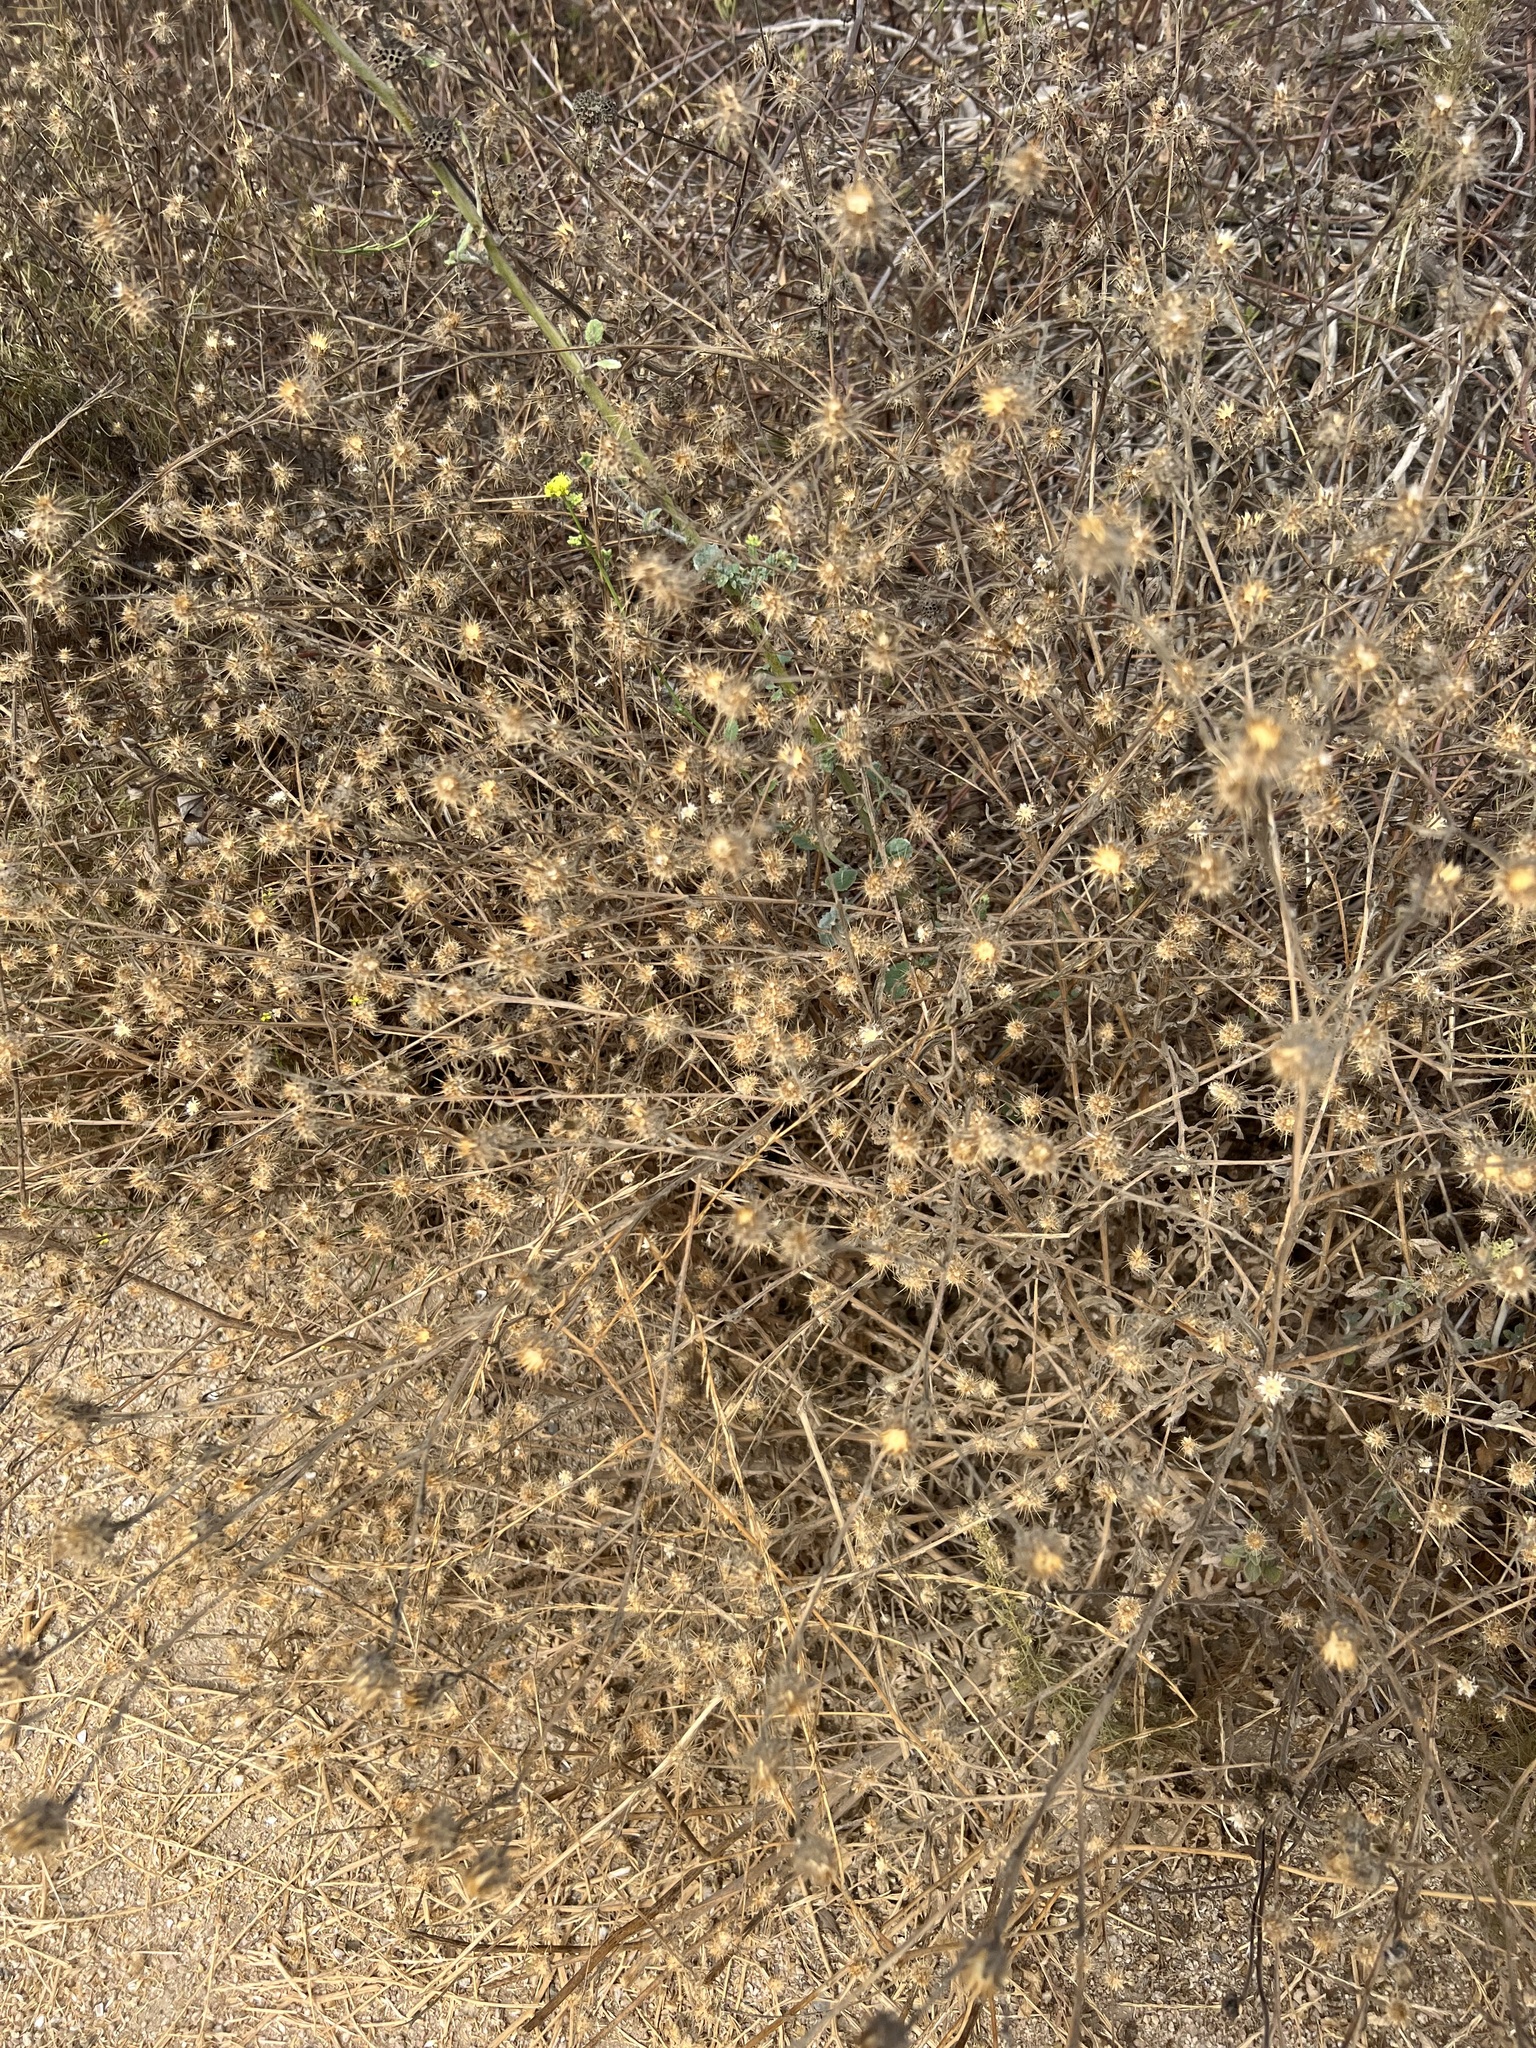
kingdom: Plantae
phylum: Tracheophyta
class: Magnoliopsida
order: Asterales
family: Asteraceae
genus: Centaurea
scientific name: Centaurea melitensis
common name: Maltese star-thistle
